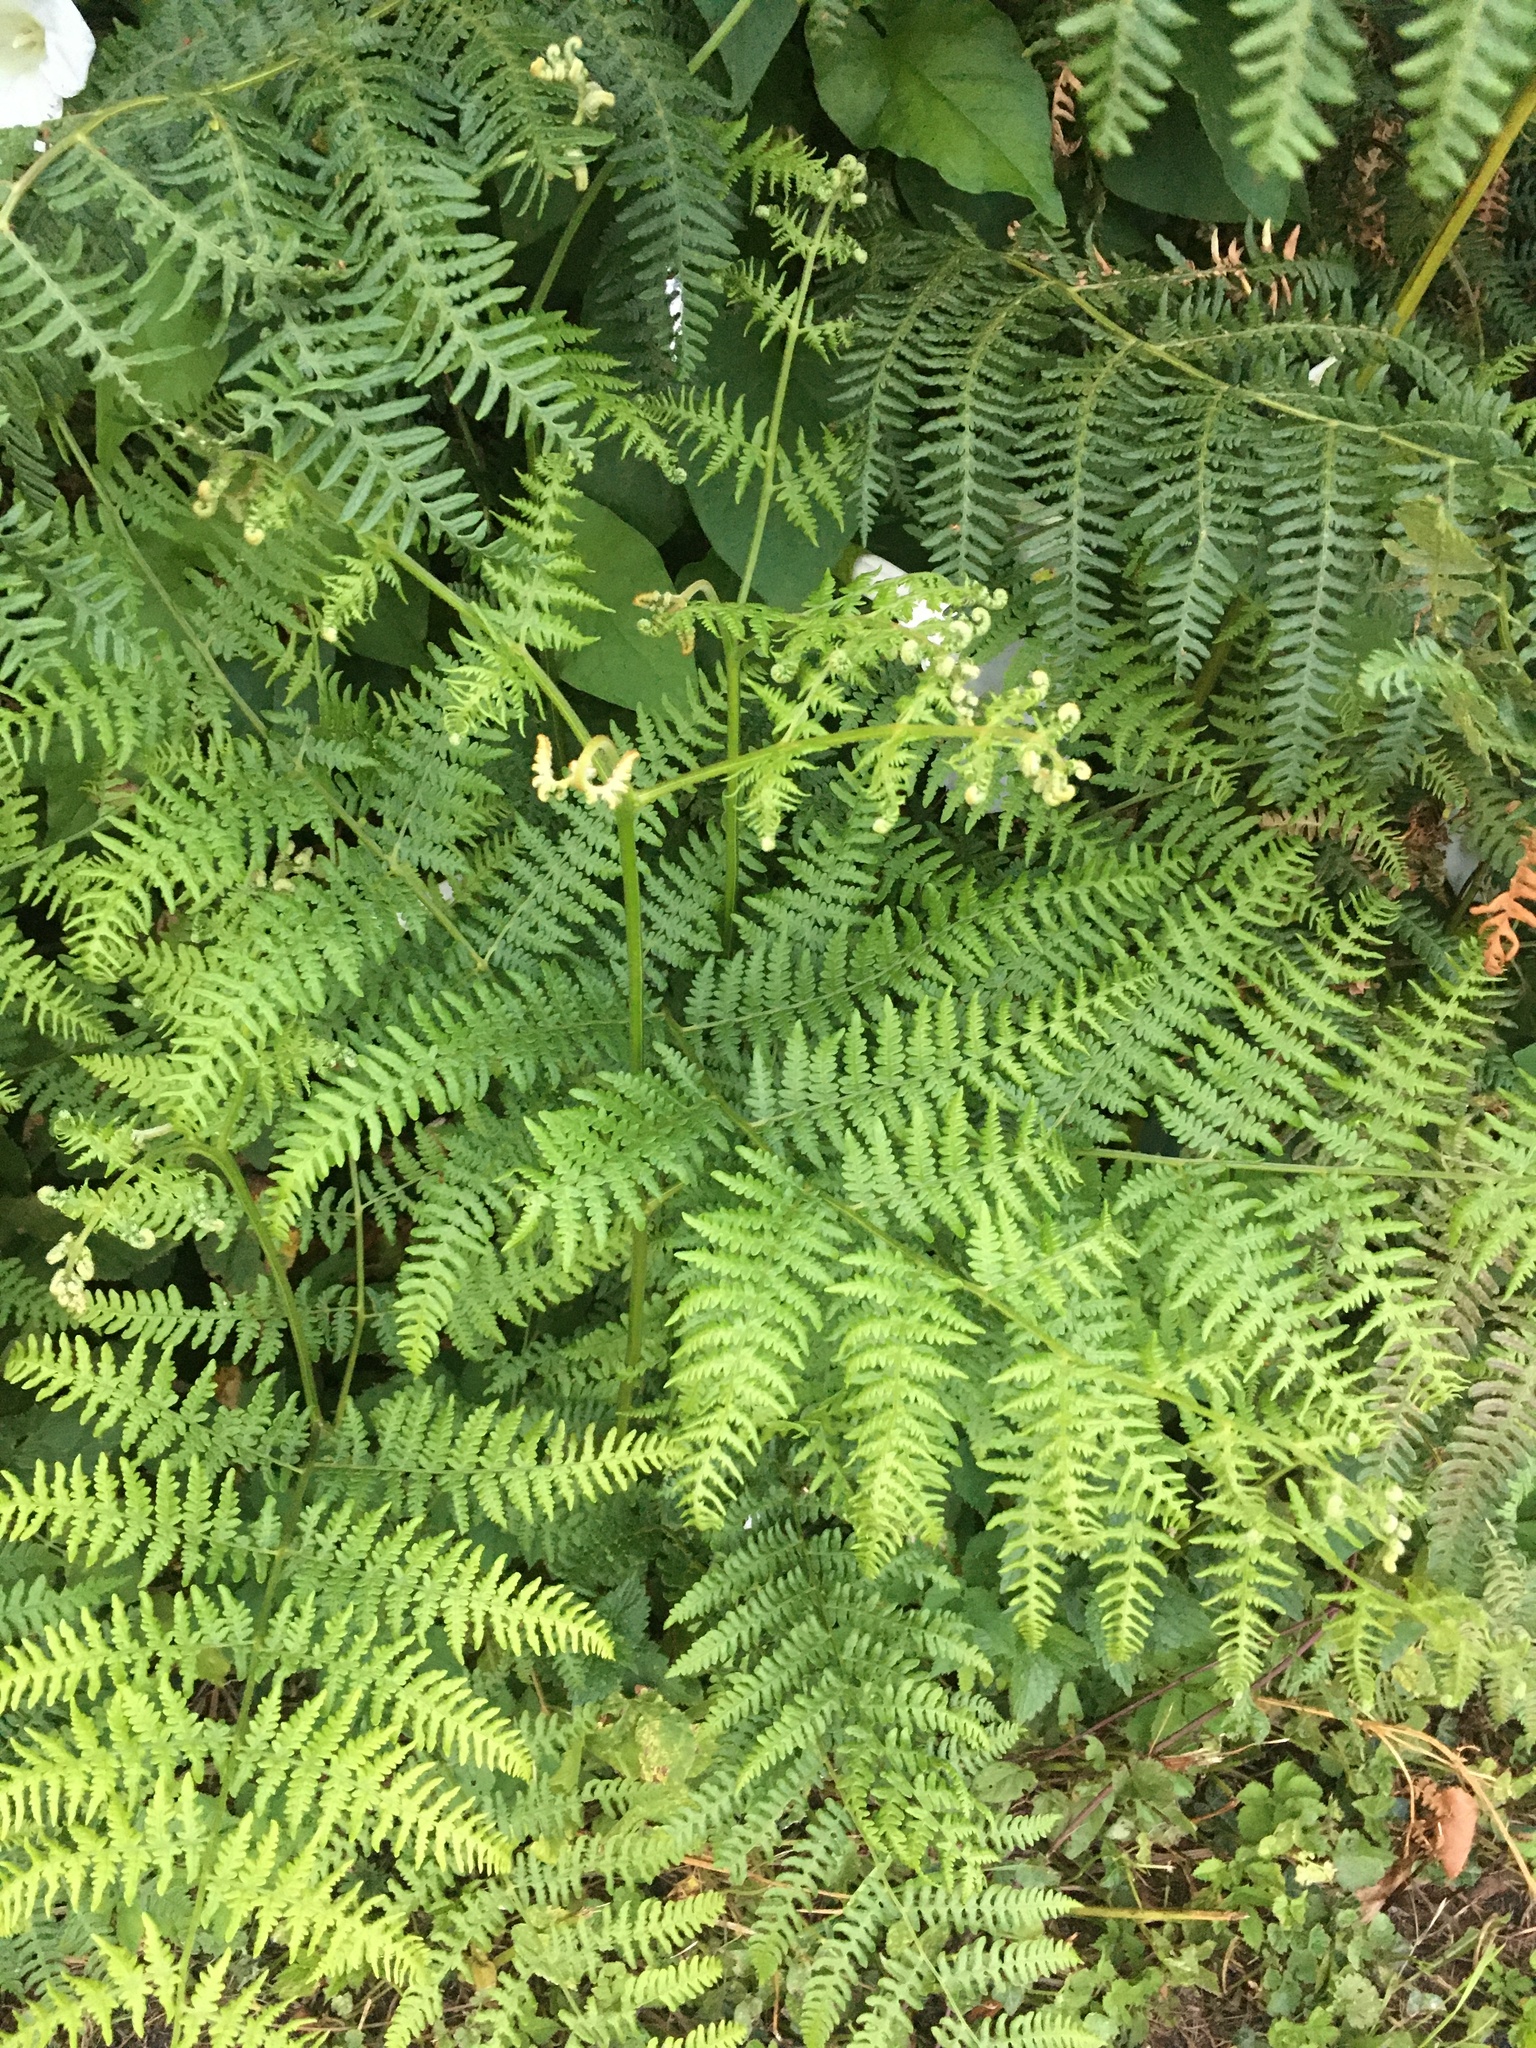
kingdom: Plantae
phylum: Tracheophyta
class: Polypodiopsida
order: Polypodiales
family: Dennstaedtiaceae
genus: Pteridium
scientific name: Pteridium aquilinum
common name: Bracken
